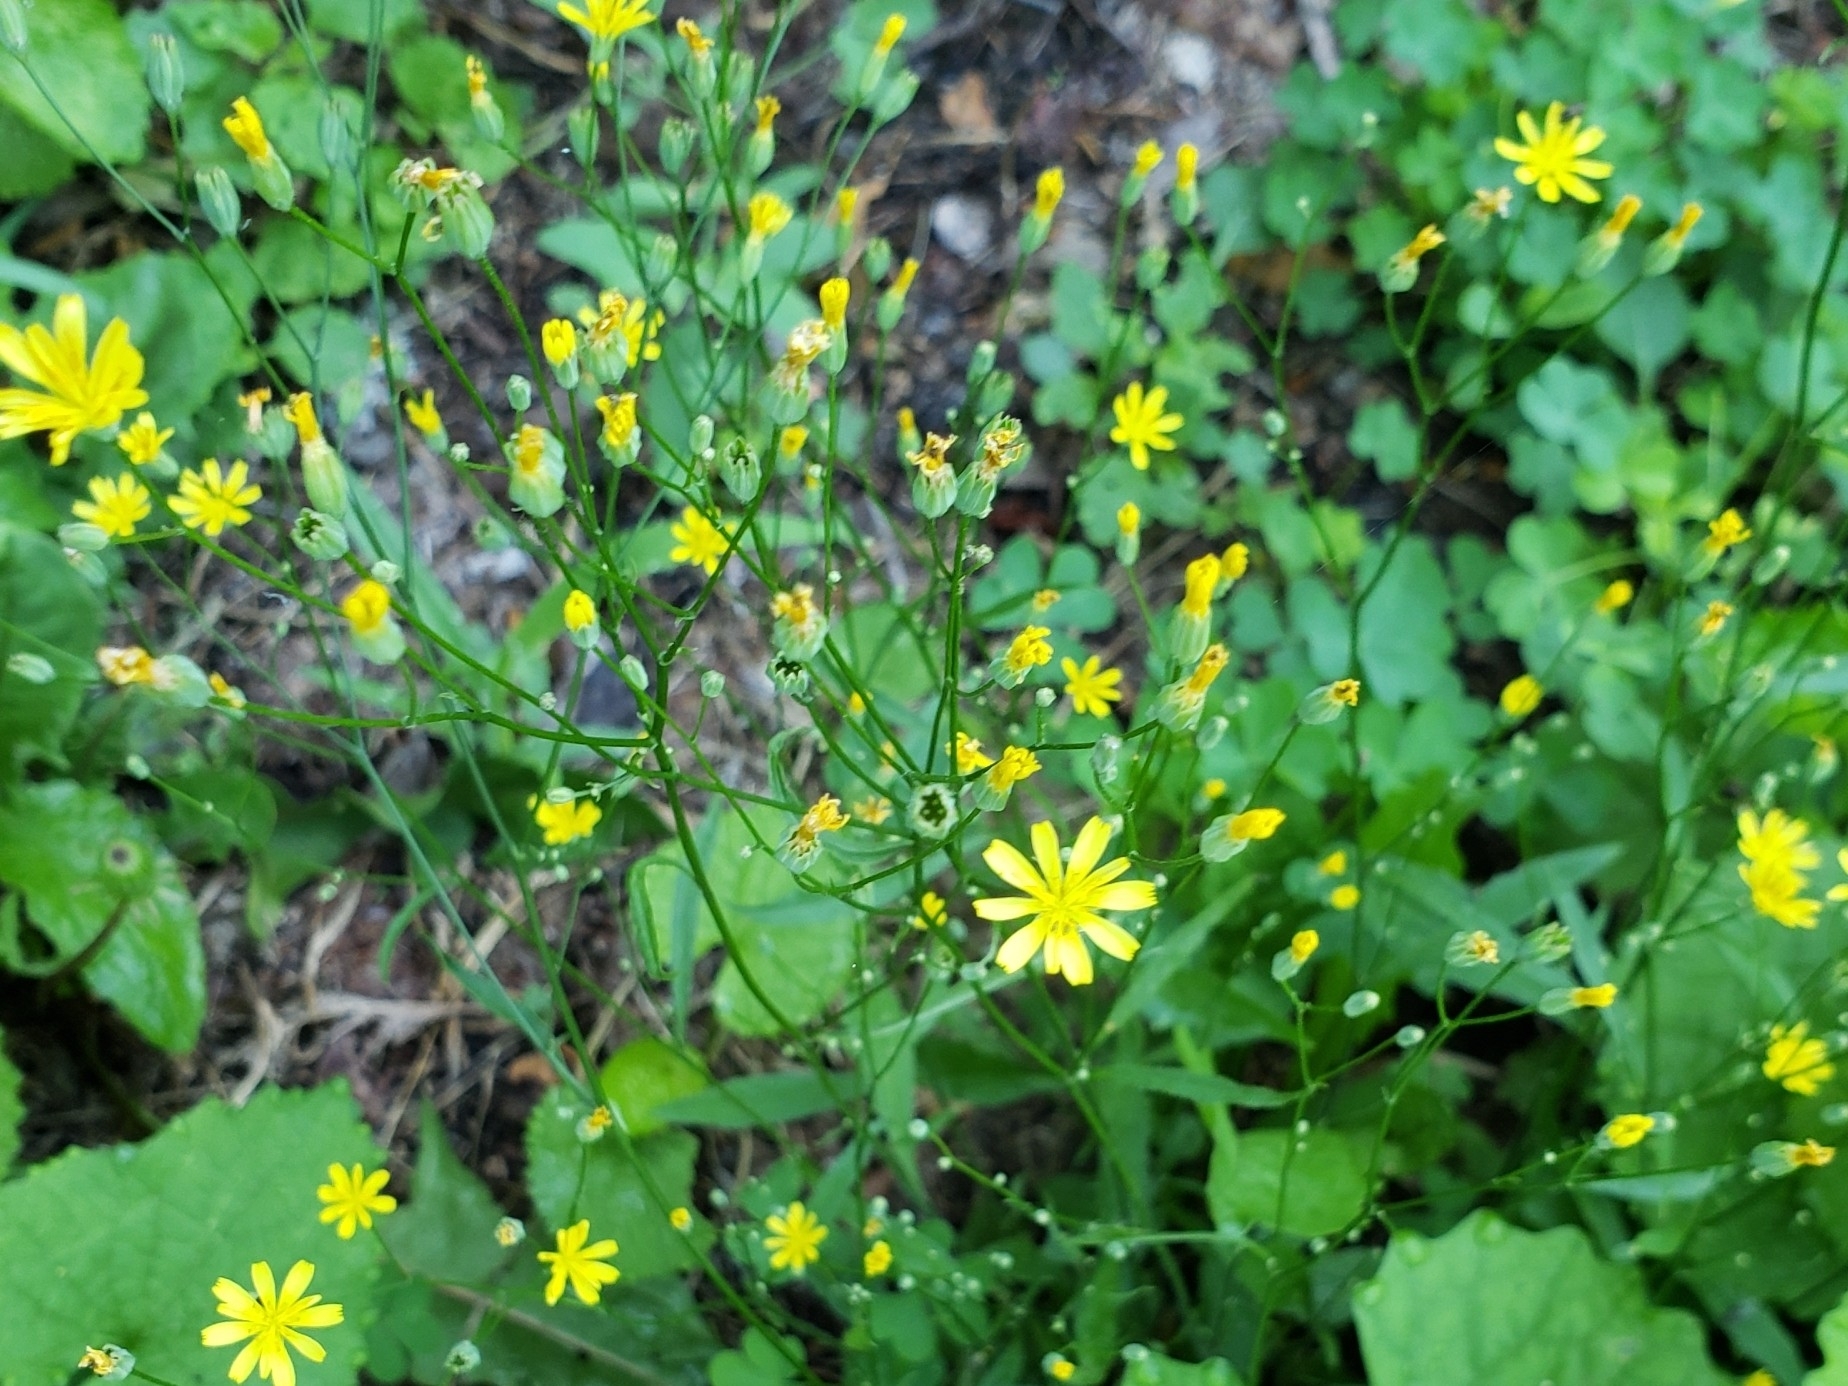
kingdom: Plantae
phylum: Tracheophyta
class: Magnoliopsida
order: Asterales
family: Asteraceae
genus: Lapsana
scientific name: Lapsana communis
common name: Nipplewort
